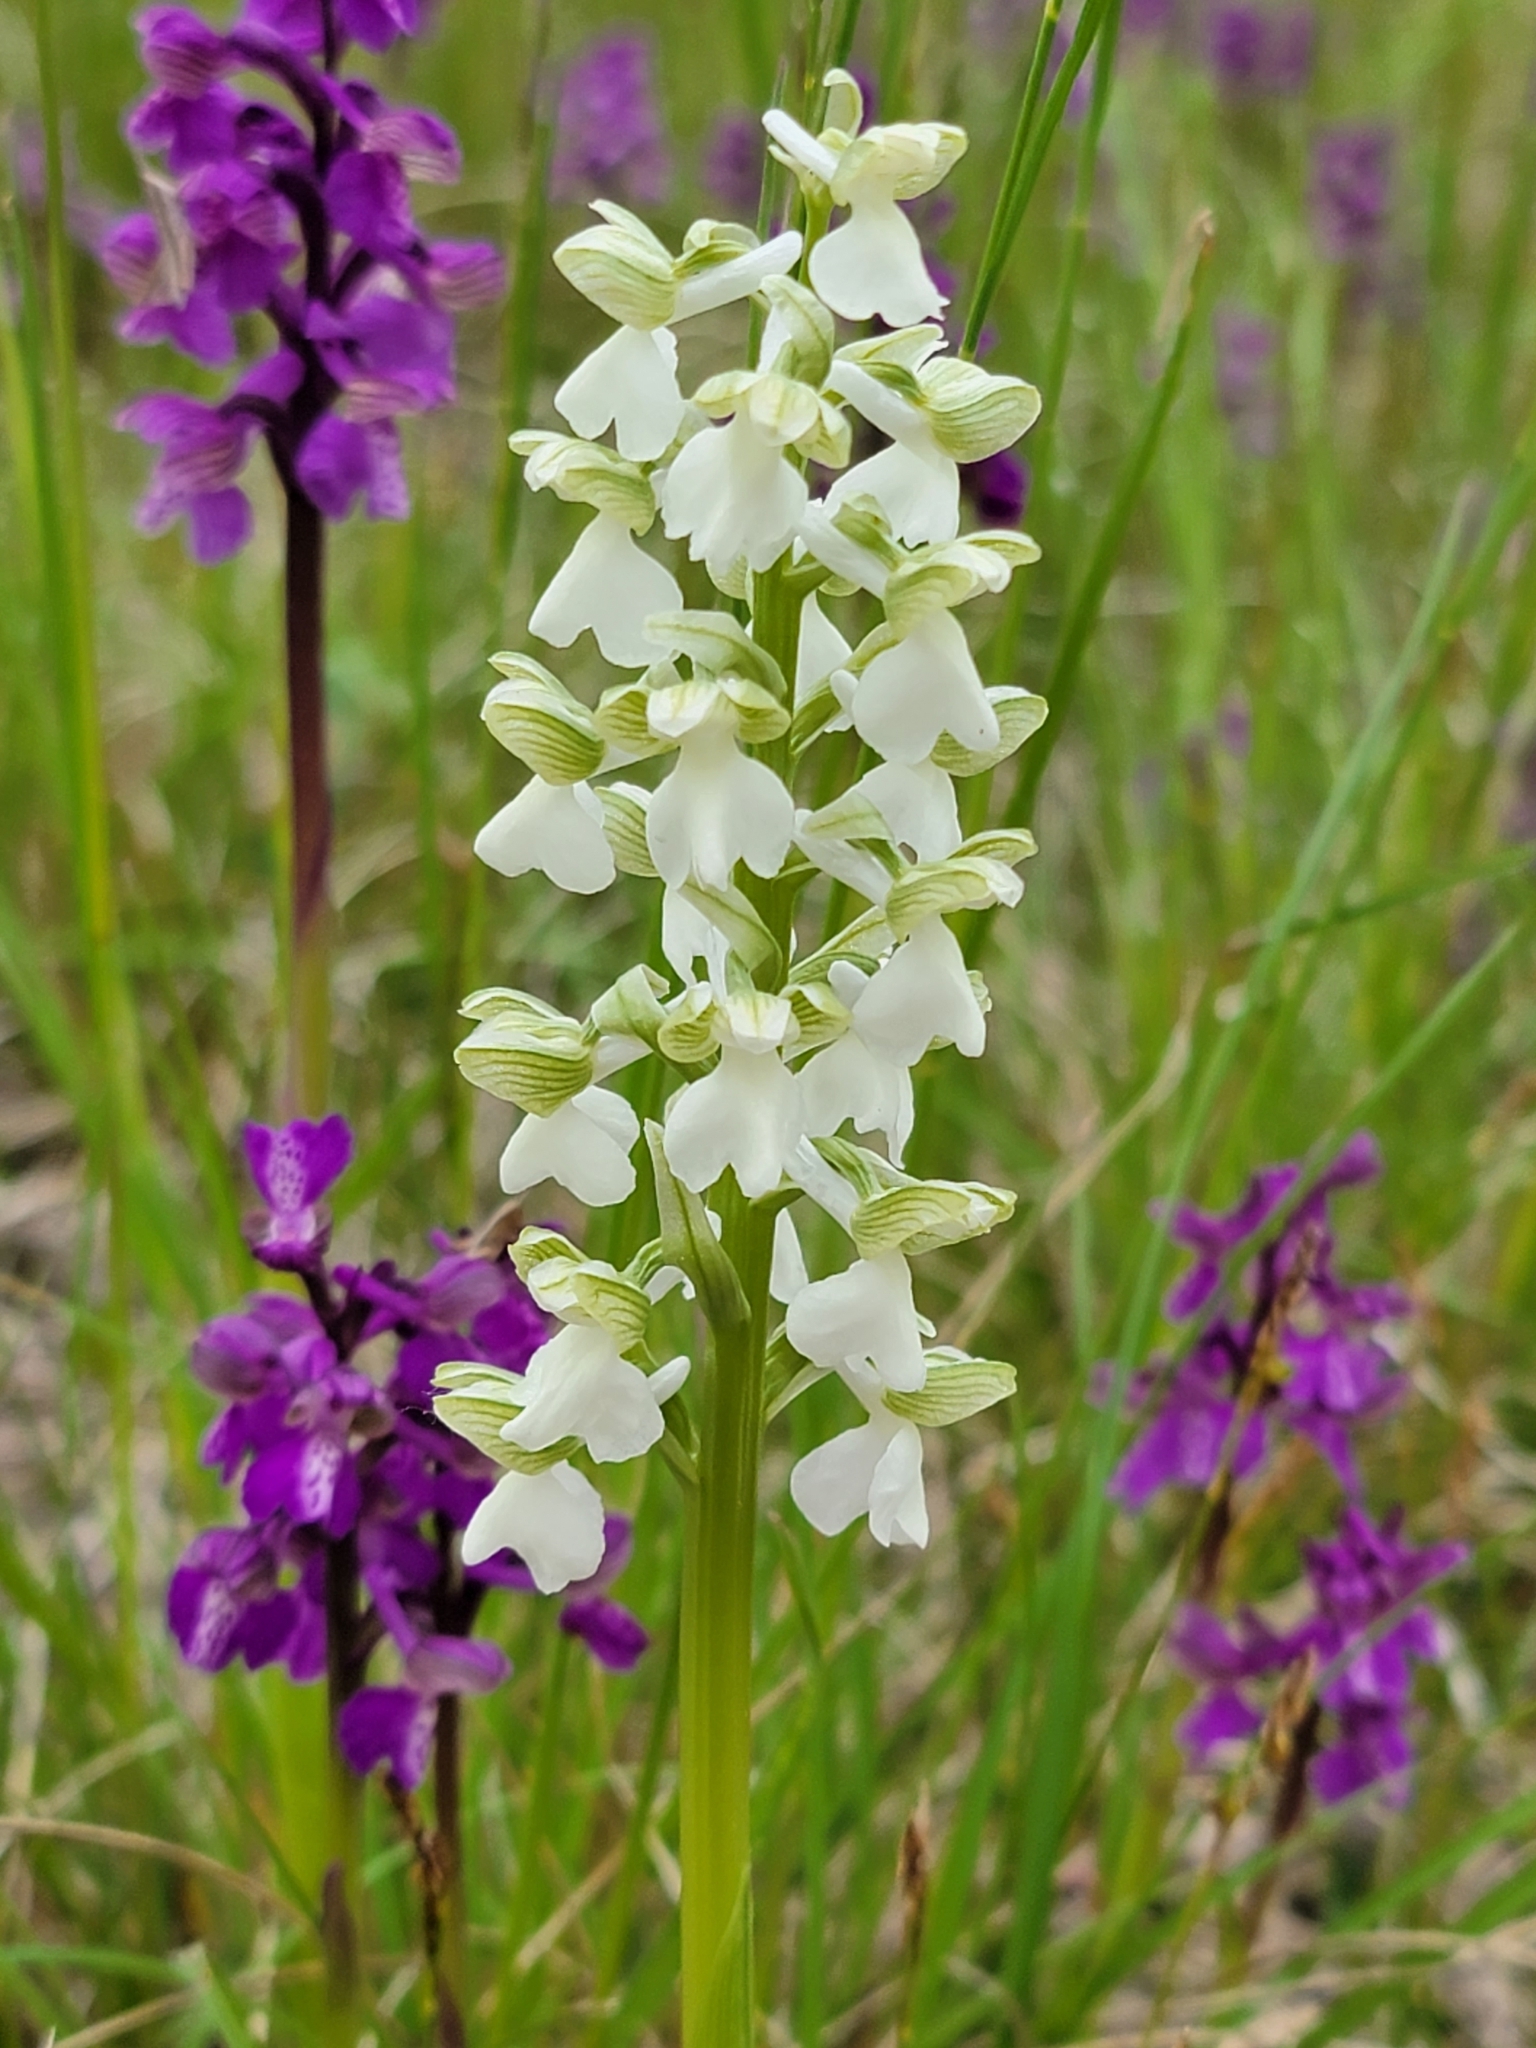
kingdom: Plantae
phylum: Tracheophyta
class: Liliopsida
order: Asparagales
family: Orchidaceae
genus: Anacamptis
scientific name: Anacamptis morio
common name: Green-winged orchid
